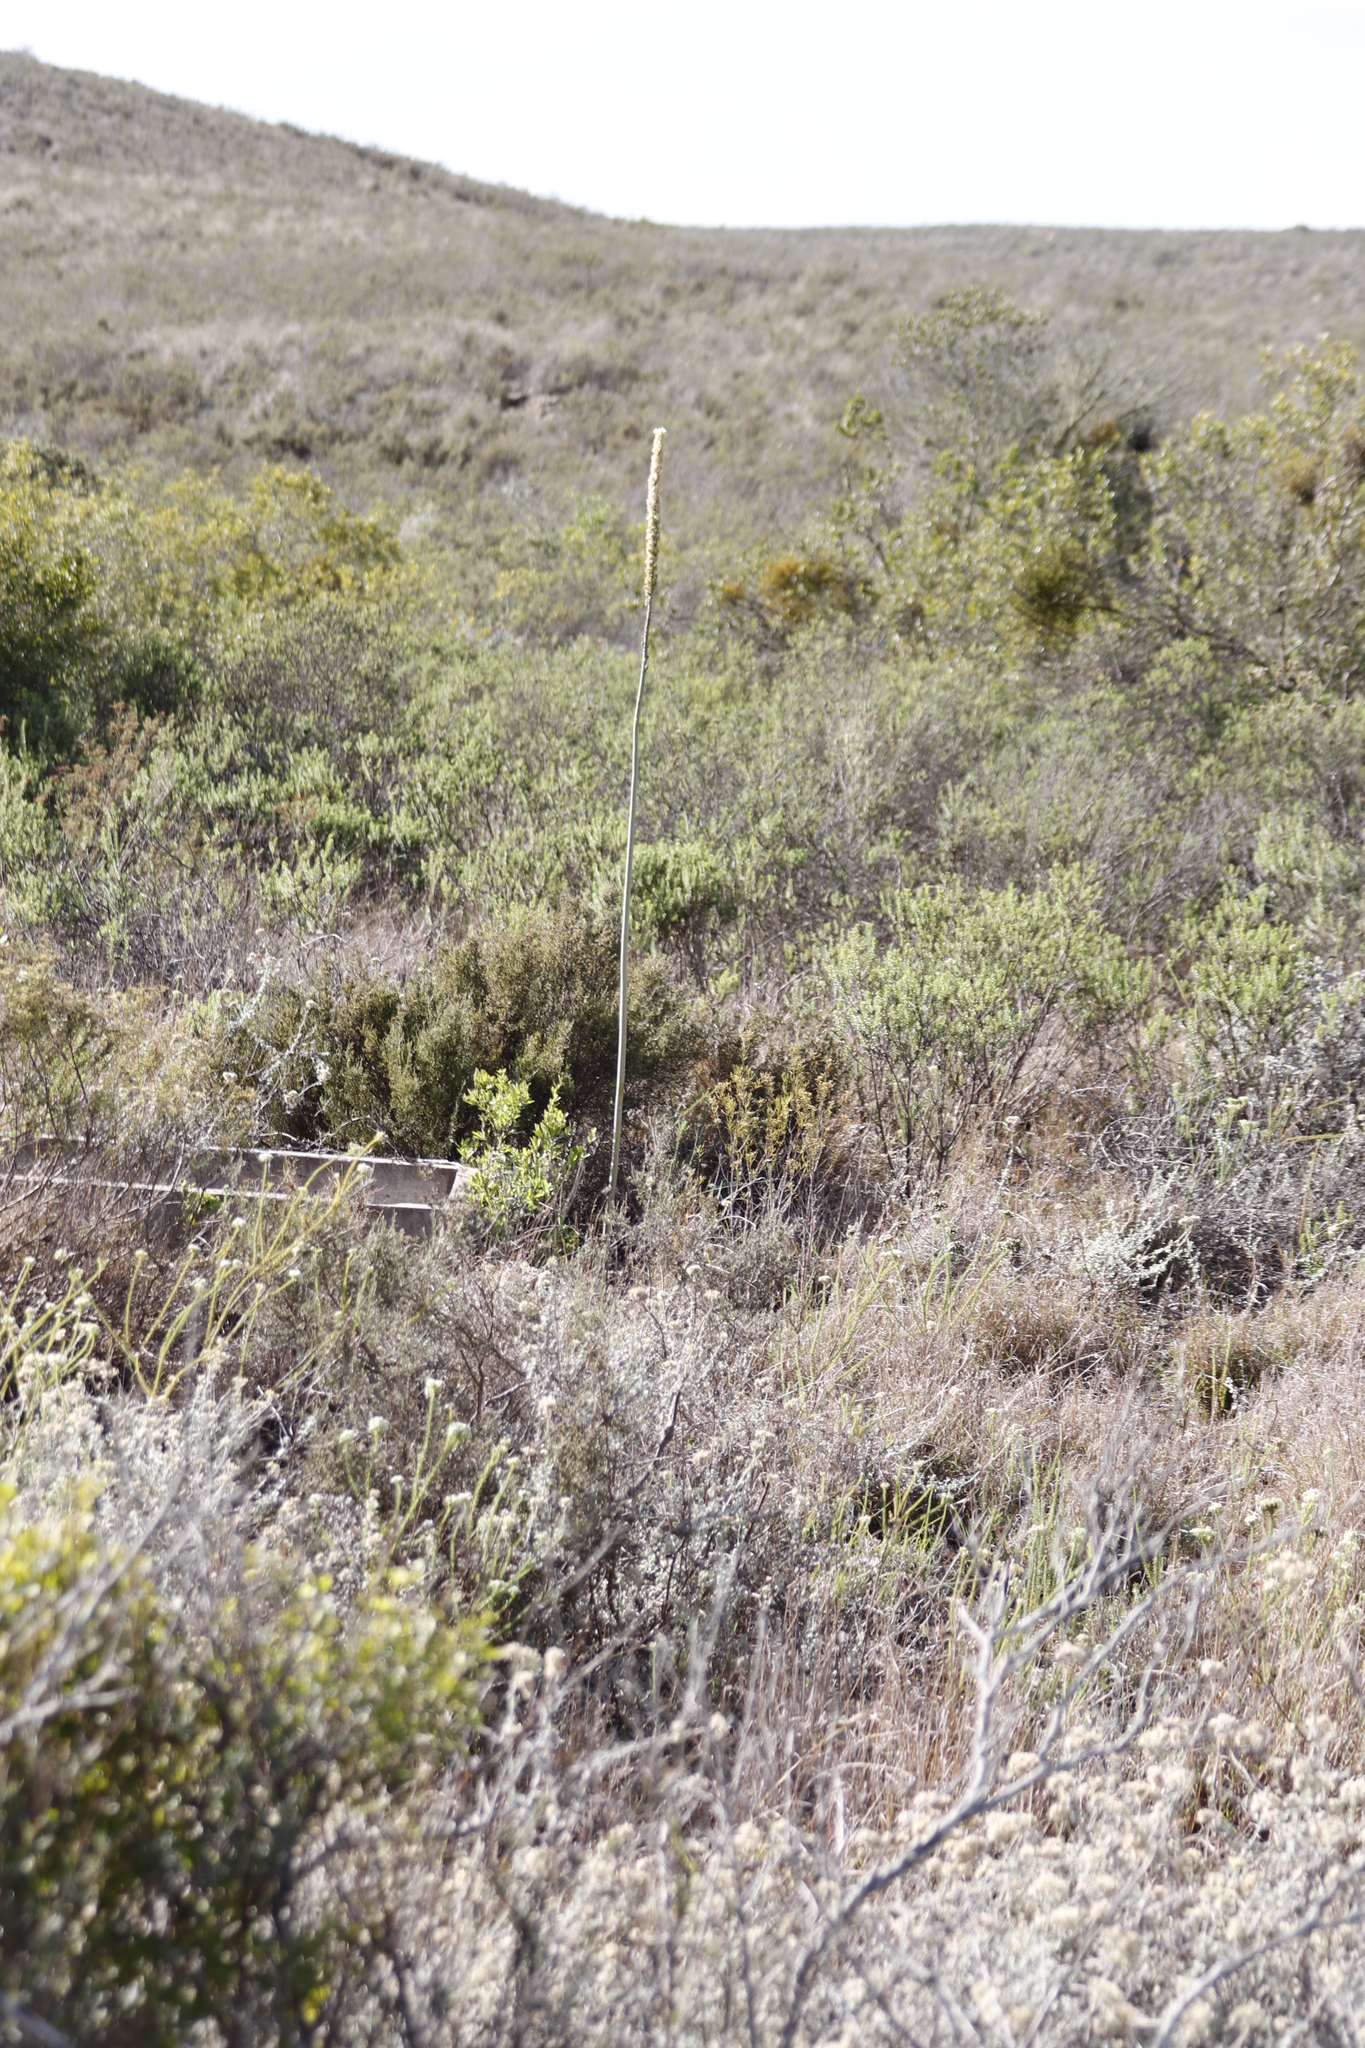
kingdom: Plantae
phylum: Tracheophyta
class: Liliopsida
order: Asparagales
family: Asparagaceae
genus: Drimia
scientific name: Drimia capensis
